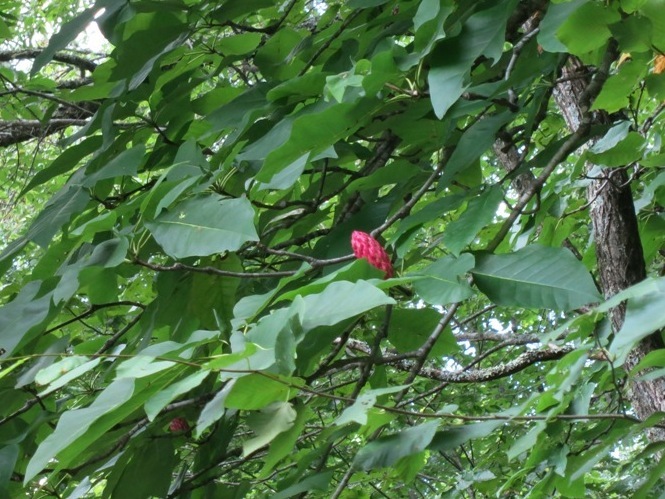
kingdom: Plantae
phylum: Tracheophyta
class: Magnoliopsida
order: Magnoliales
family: Magnoliaceae
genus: Magnolia
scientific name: Magnolia fraseri
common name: Fraser's magnolia
